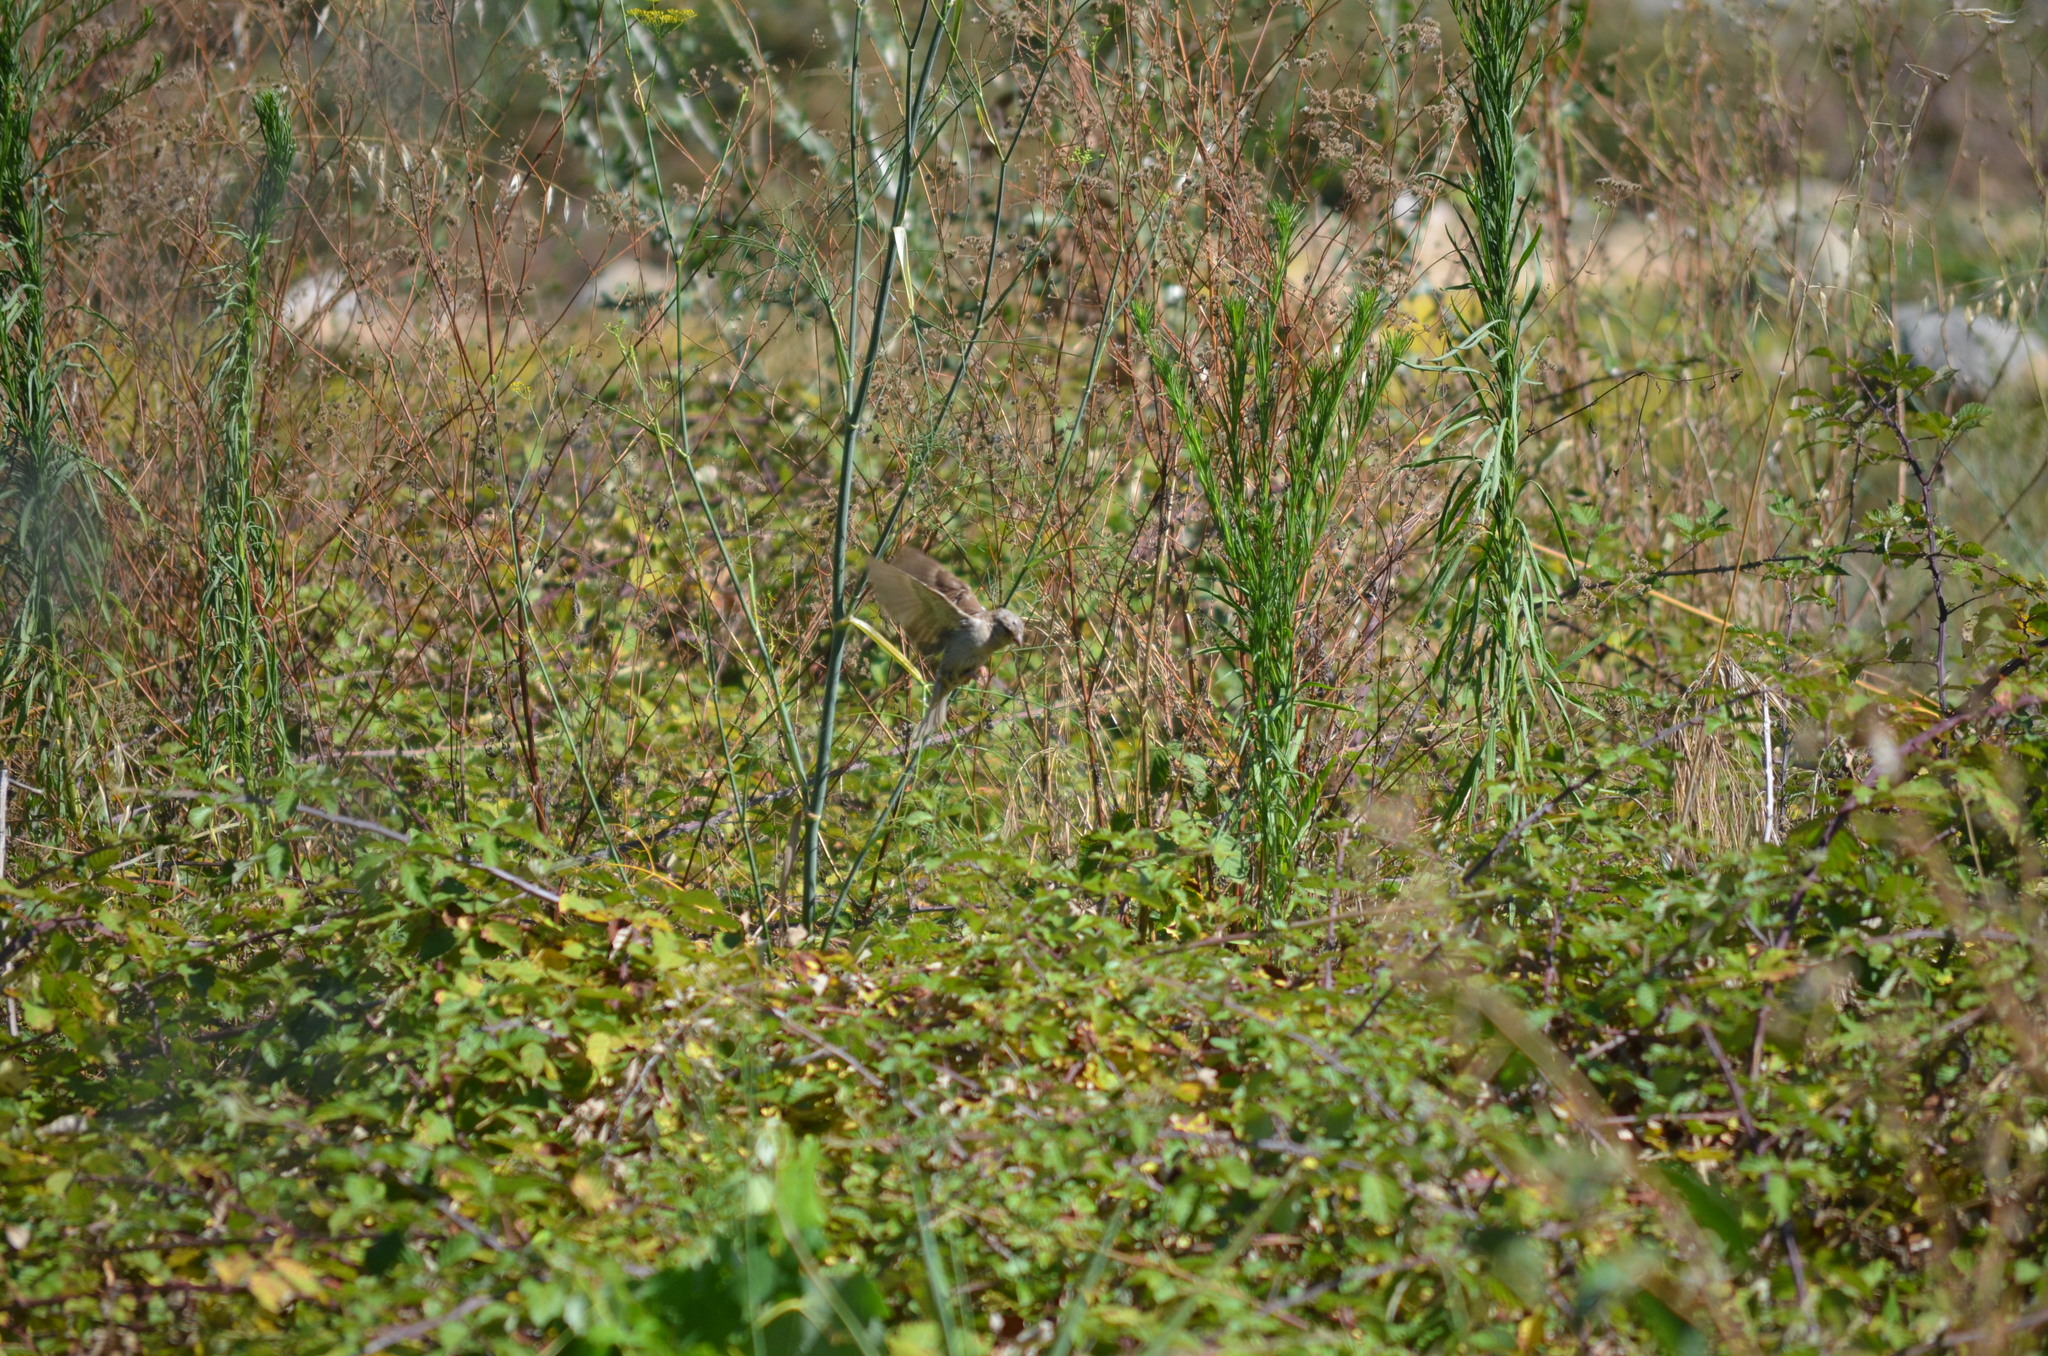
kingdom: Animalia
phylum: Chordata
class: Aves
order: Passeriformes
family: Passeridae
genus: Passer
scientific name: Passer domesticus
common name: House sparrow
